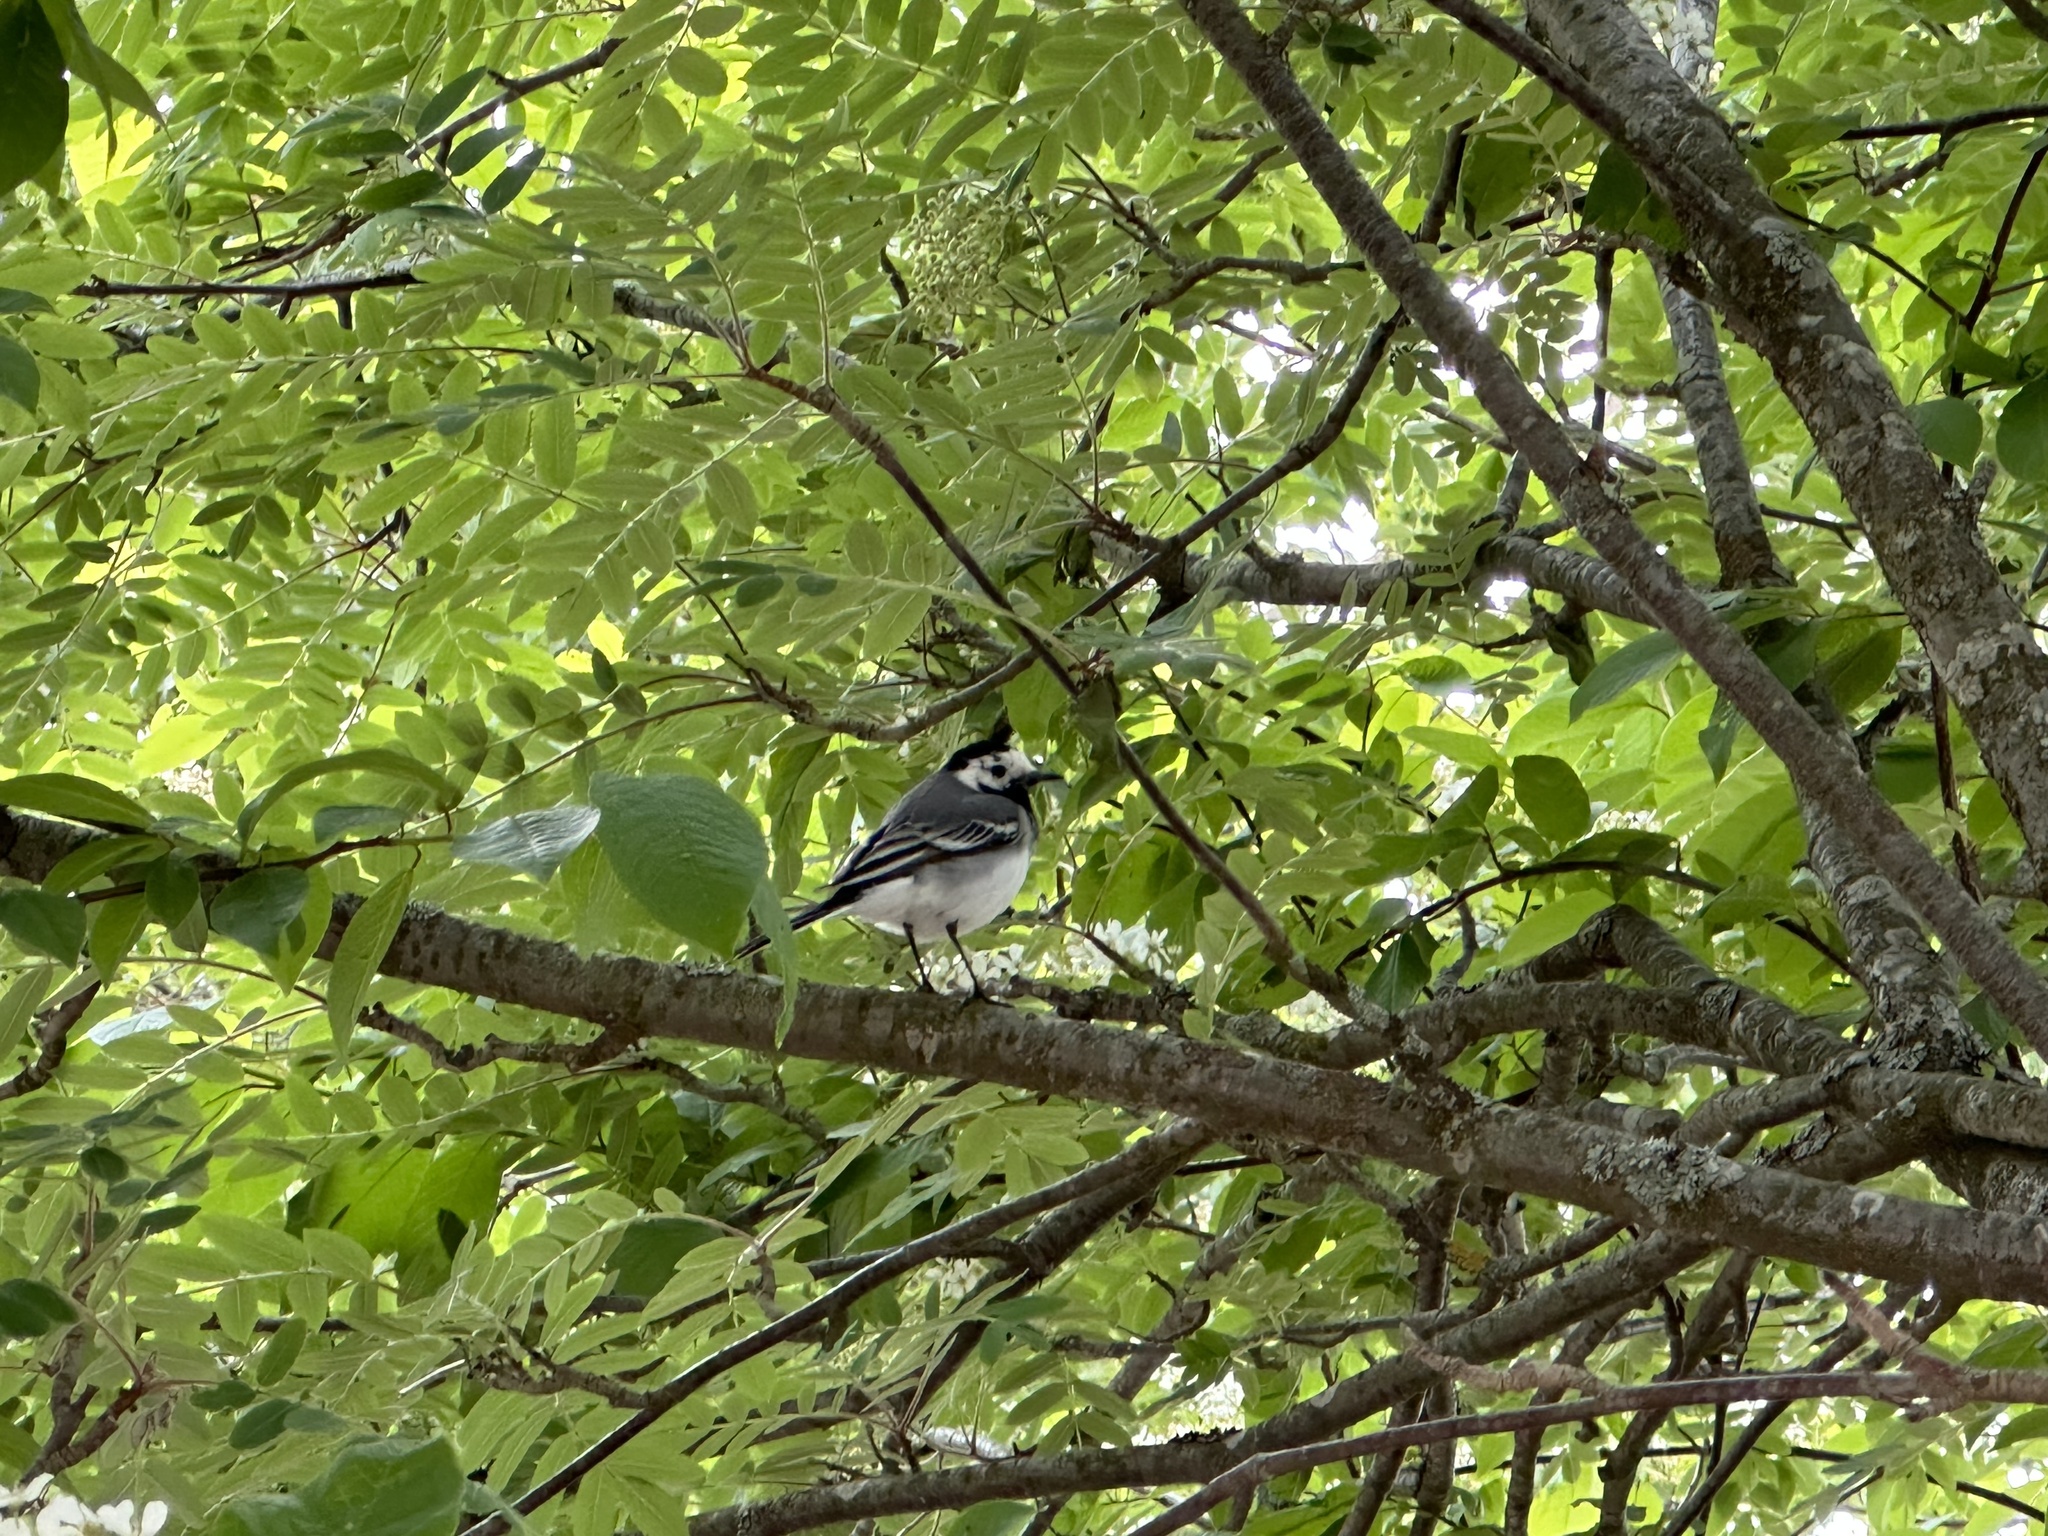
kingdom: Animalia
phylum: Chordata
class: Aves
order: Passeriformes
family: Motacillidae
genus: Motacilla
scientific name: Motacilla alba
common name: White wagtail
